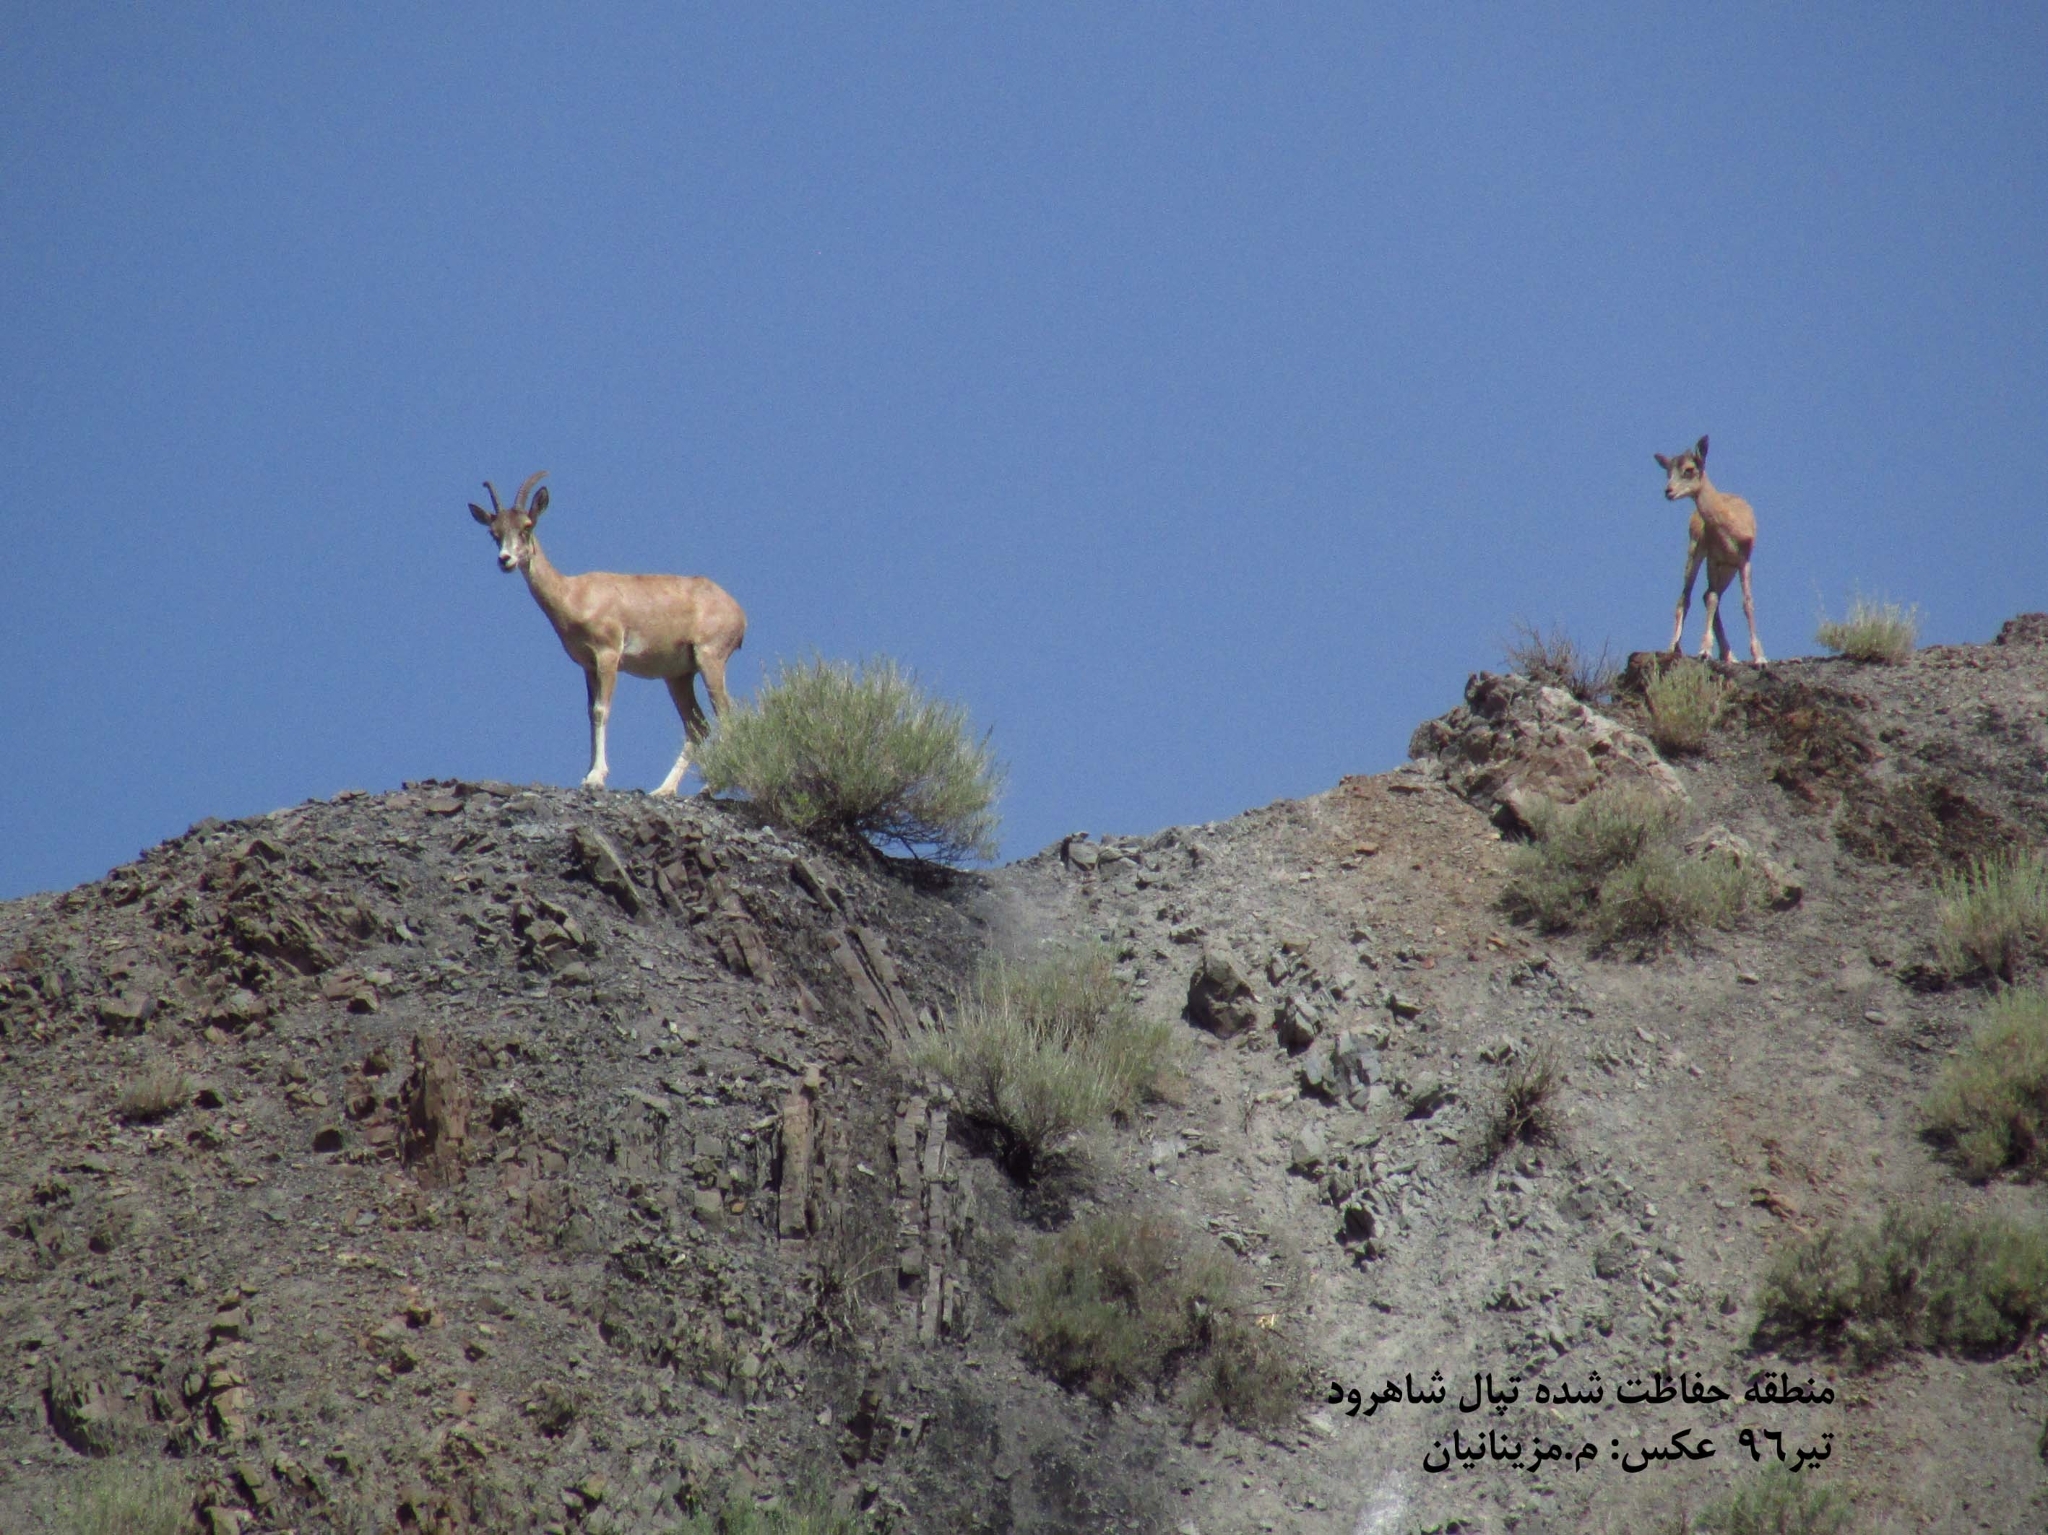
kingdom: Animalia
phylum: Chordata
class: Mammalia
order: Artiodactyla
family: Bovidae
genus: Ovis
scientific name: Ovis aries
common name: Domestic sheep
